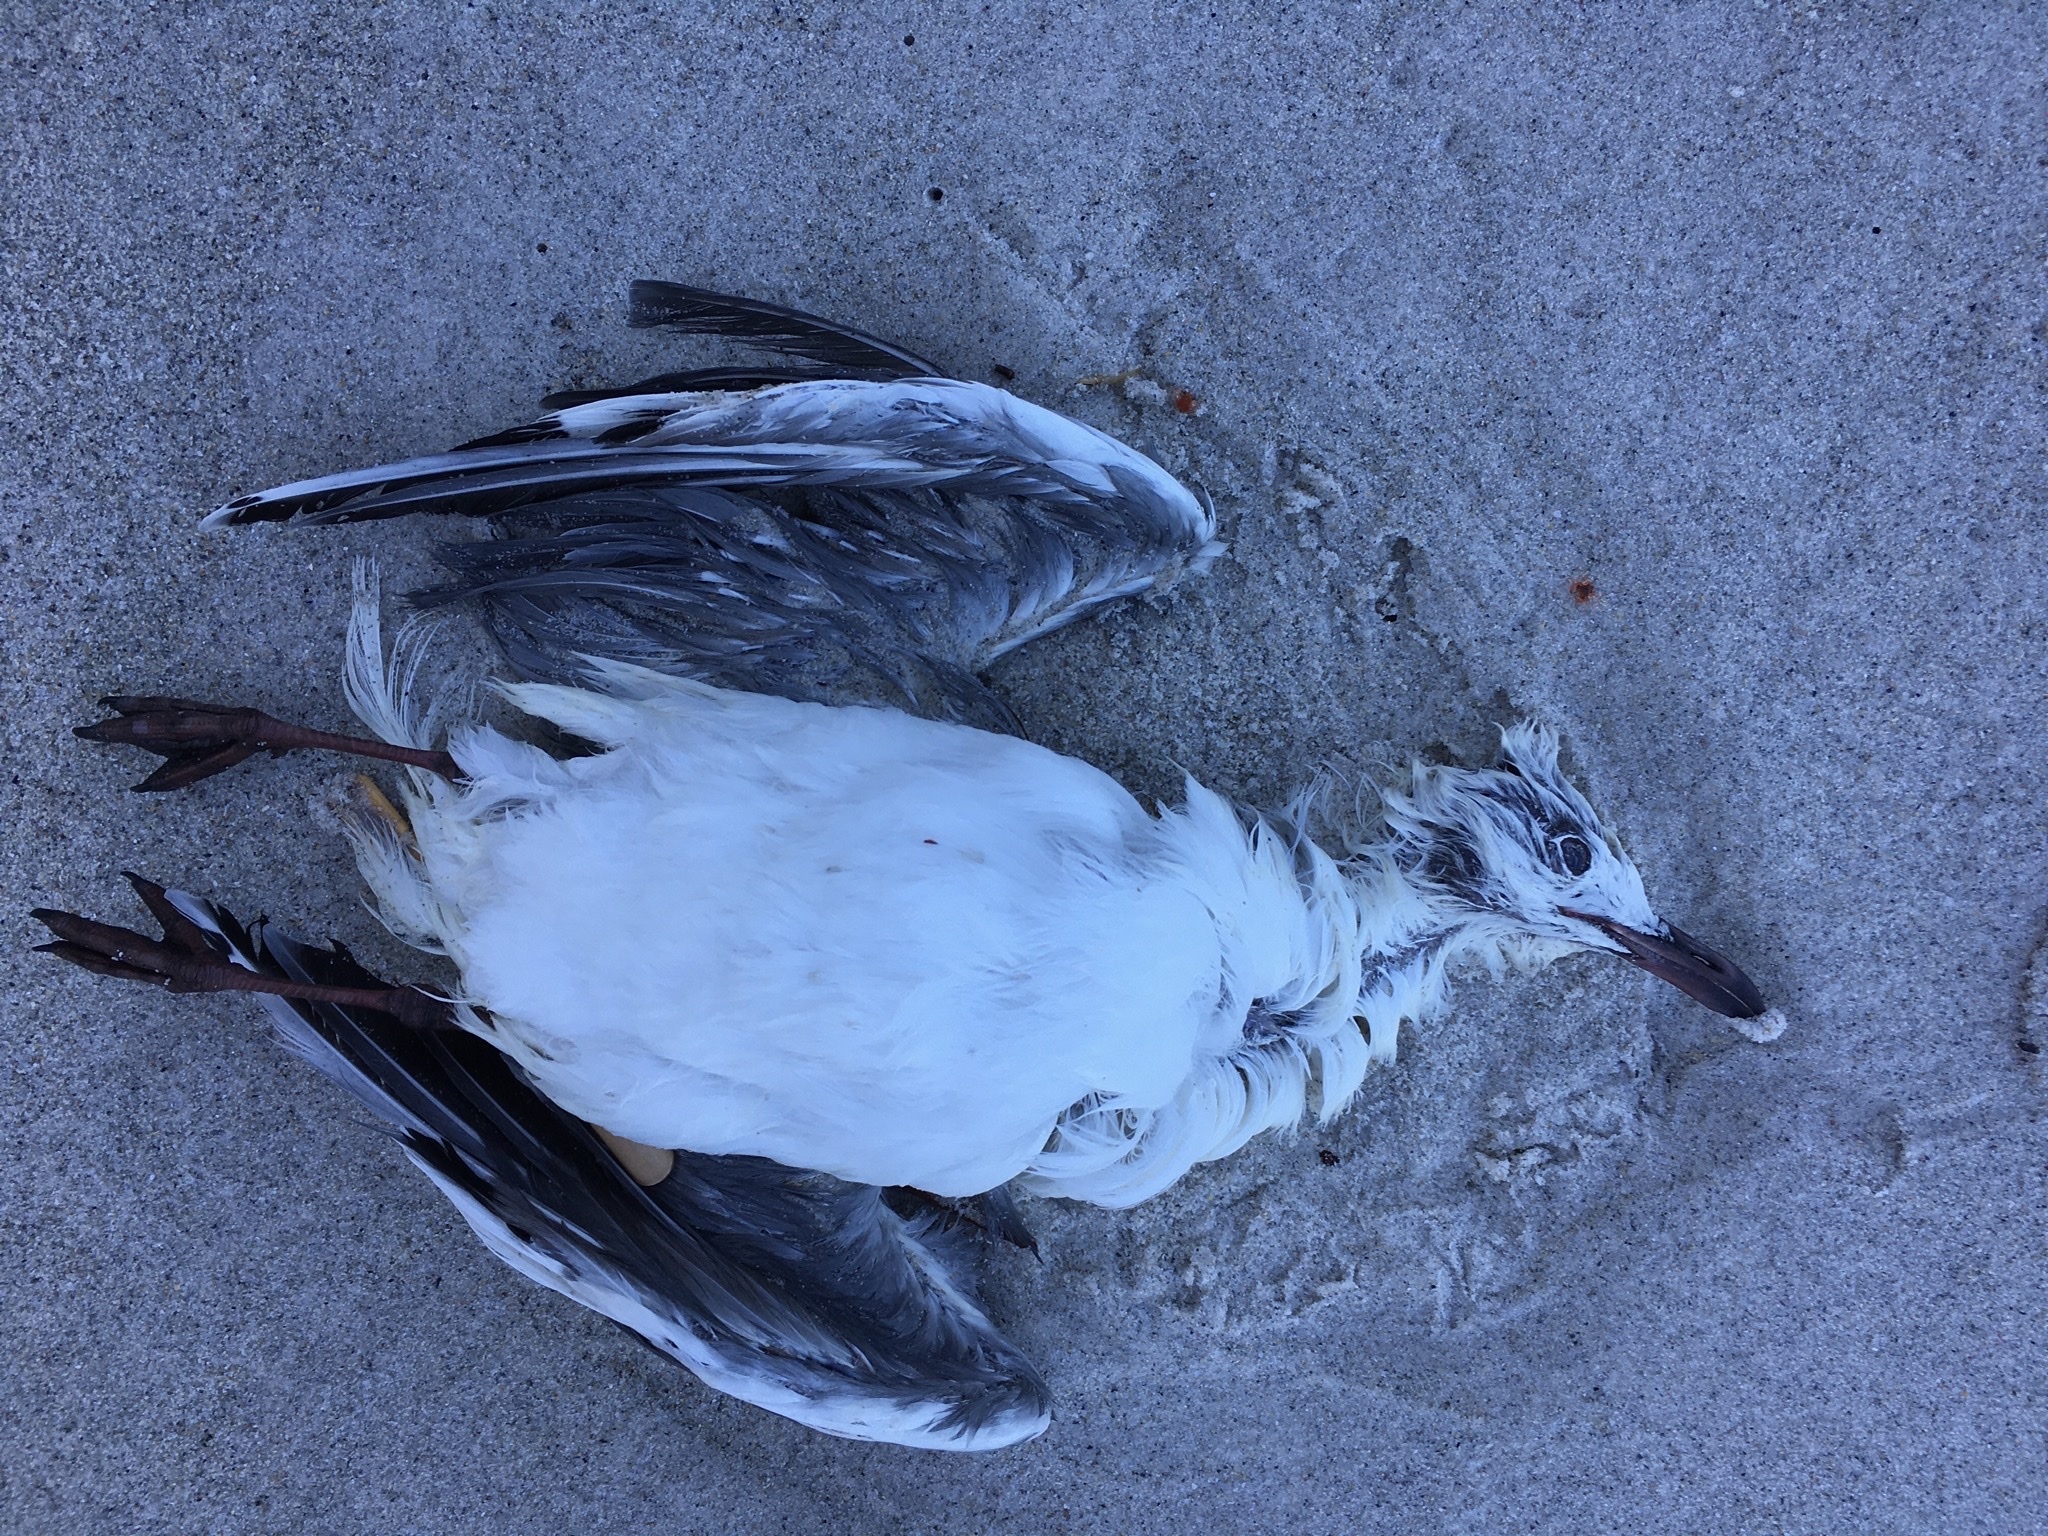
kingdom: Animalia
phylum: Chordata
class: Aves
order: Charadriiformes
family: Laridae
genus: Chroicocephalus
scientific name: Chroicocephalus hartlaubii
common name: Hartlaub's gull
